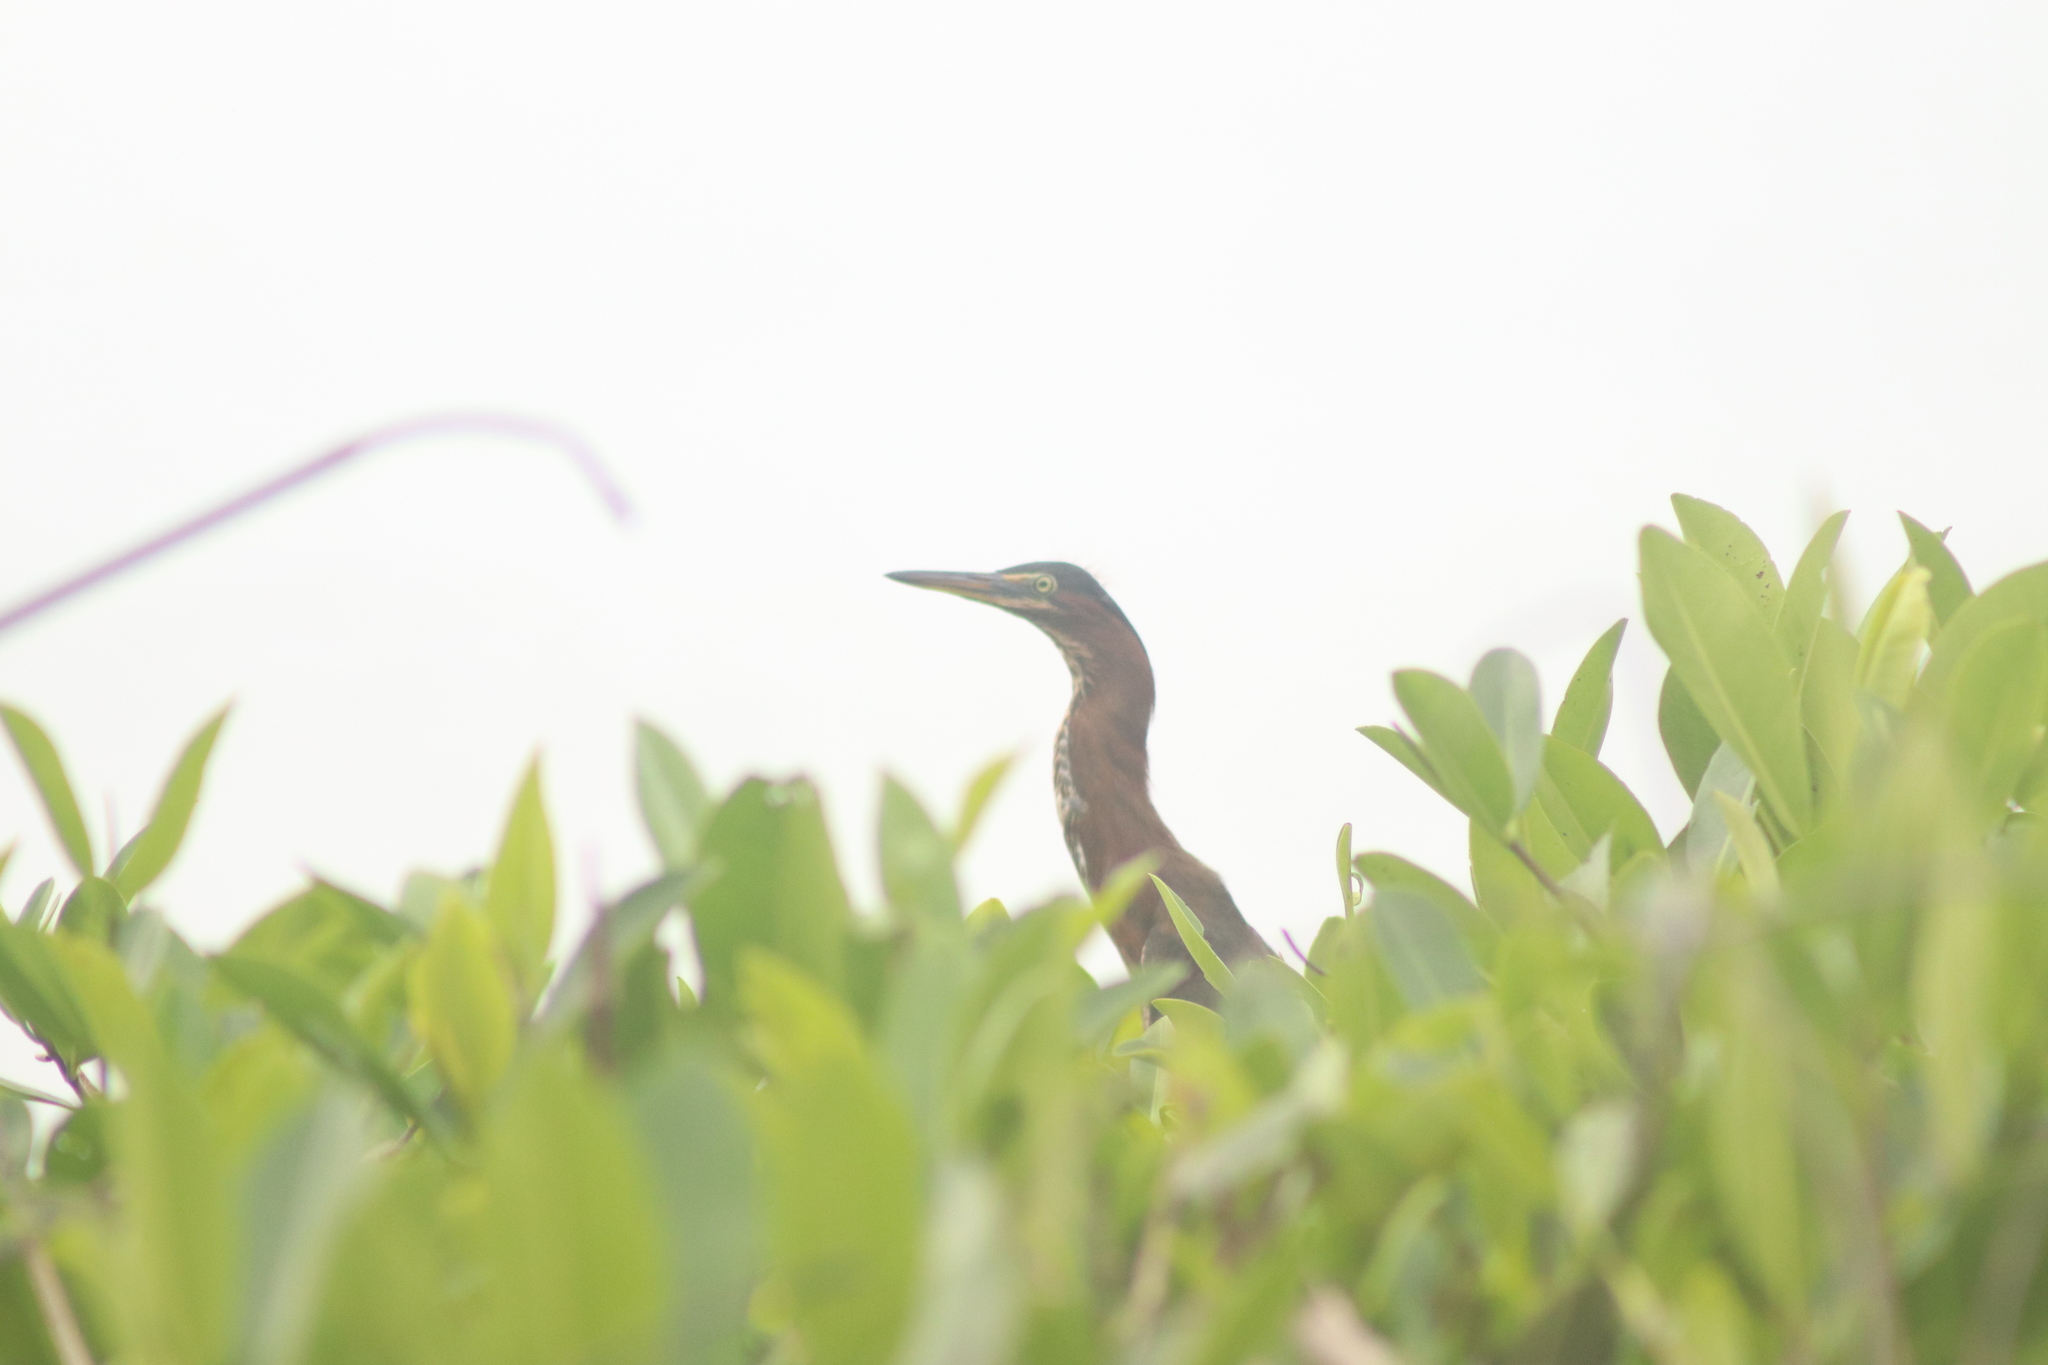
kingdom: Animalia
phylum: Chordata
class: Aves
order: Pelecaniformes
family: Ardeidae
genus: Butorides
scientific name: Butorides virescens
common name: Green heron
